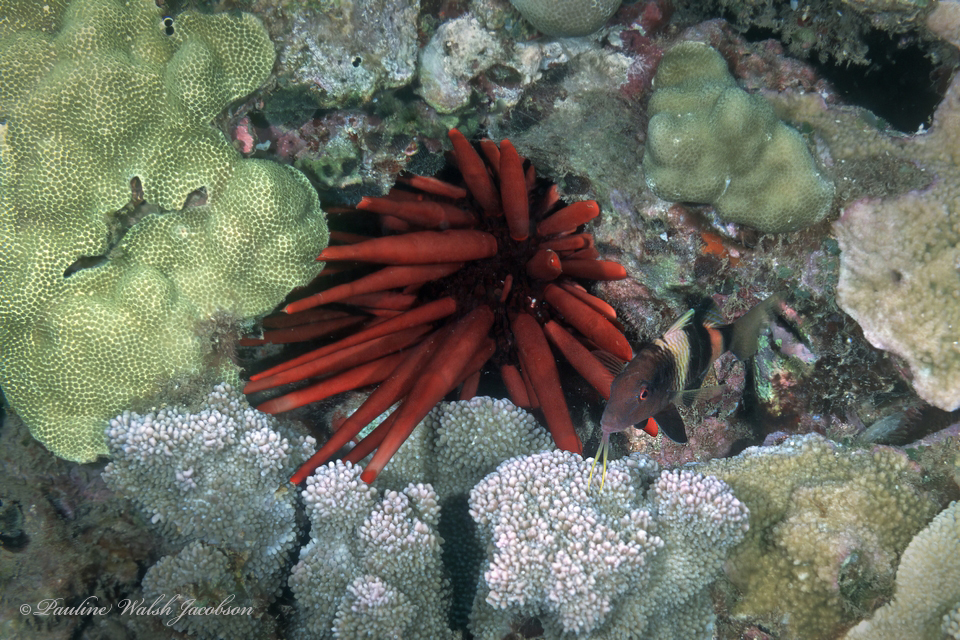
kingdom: Animalia
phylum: Chordata
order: Perciformes
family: Mullidae
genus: Parupeneus
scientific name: Parupeneus multifasciatus
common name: Manybar goatfish
